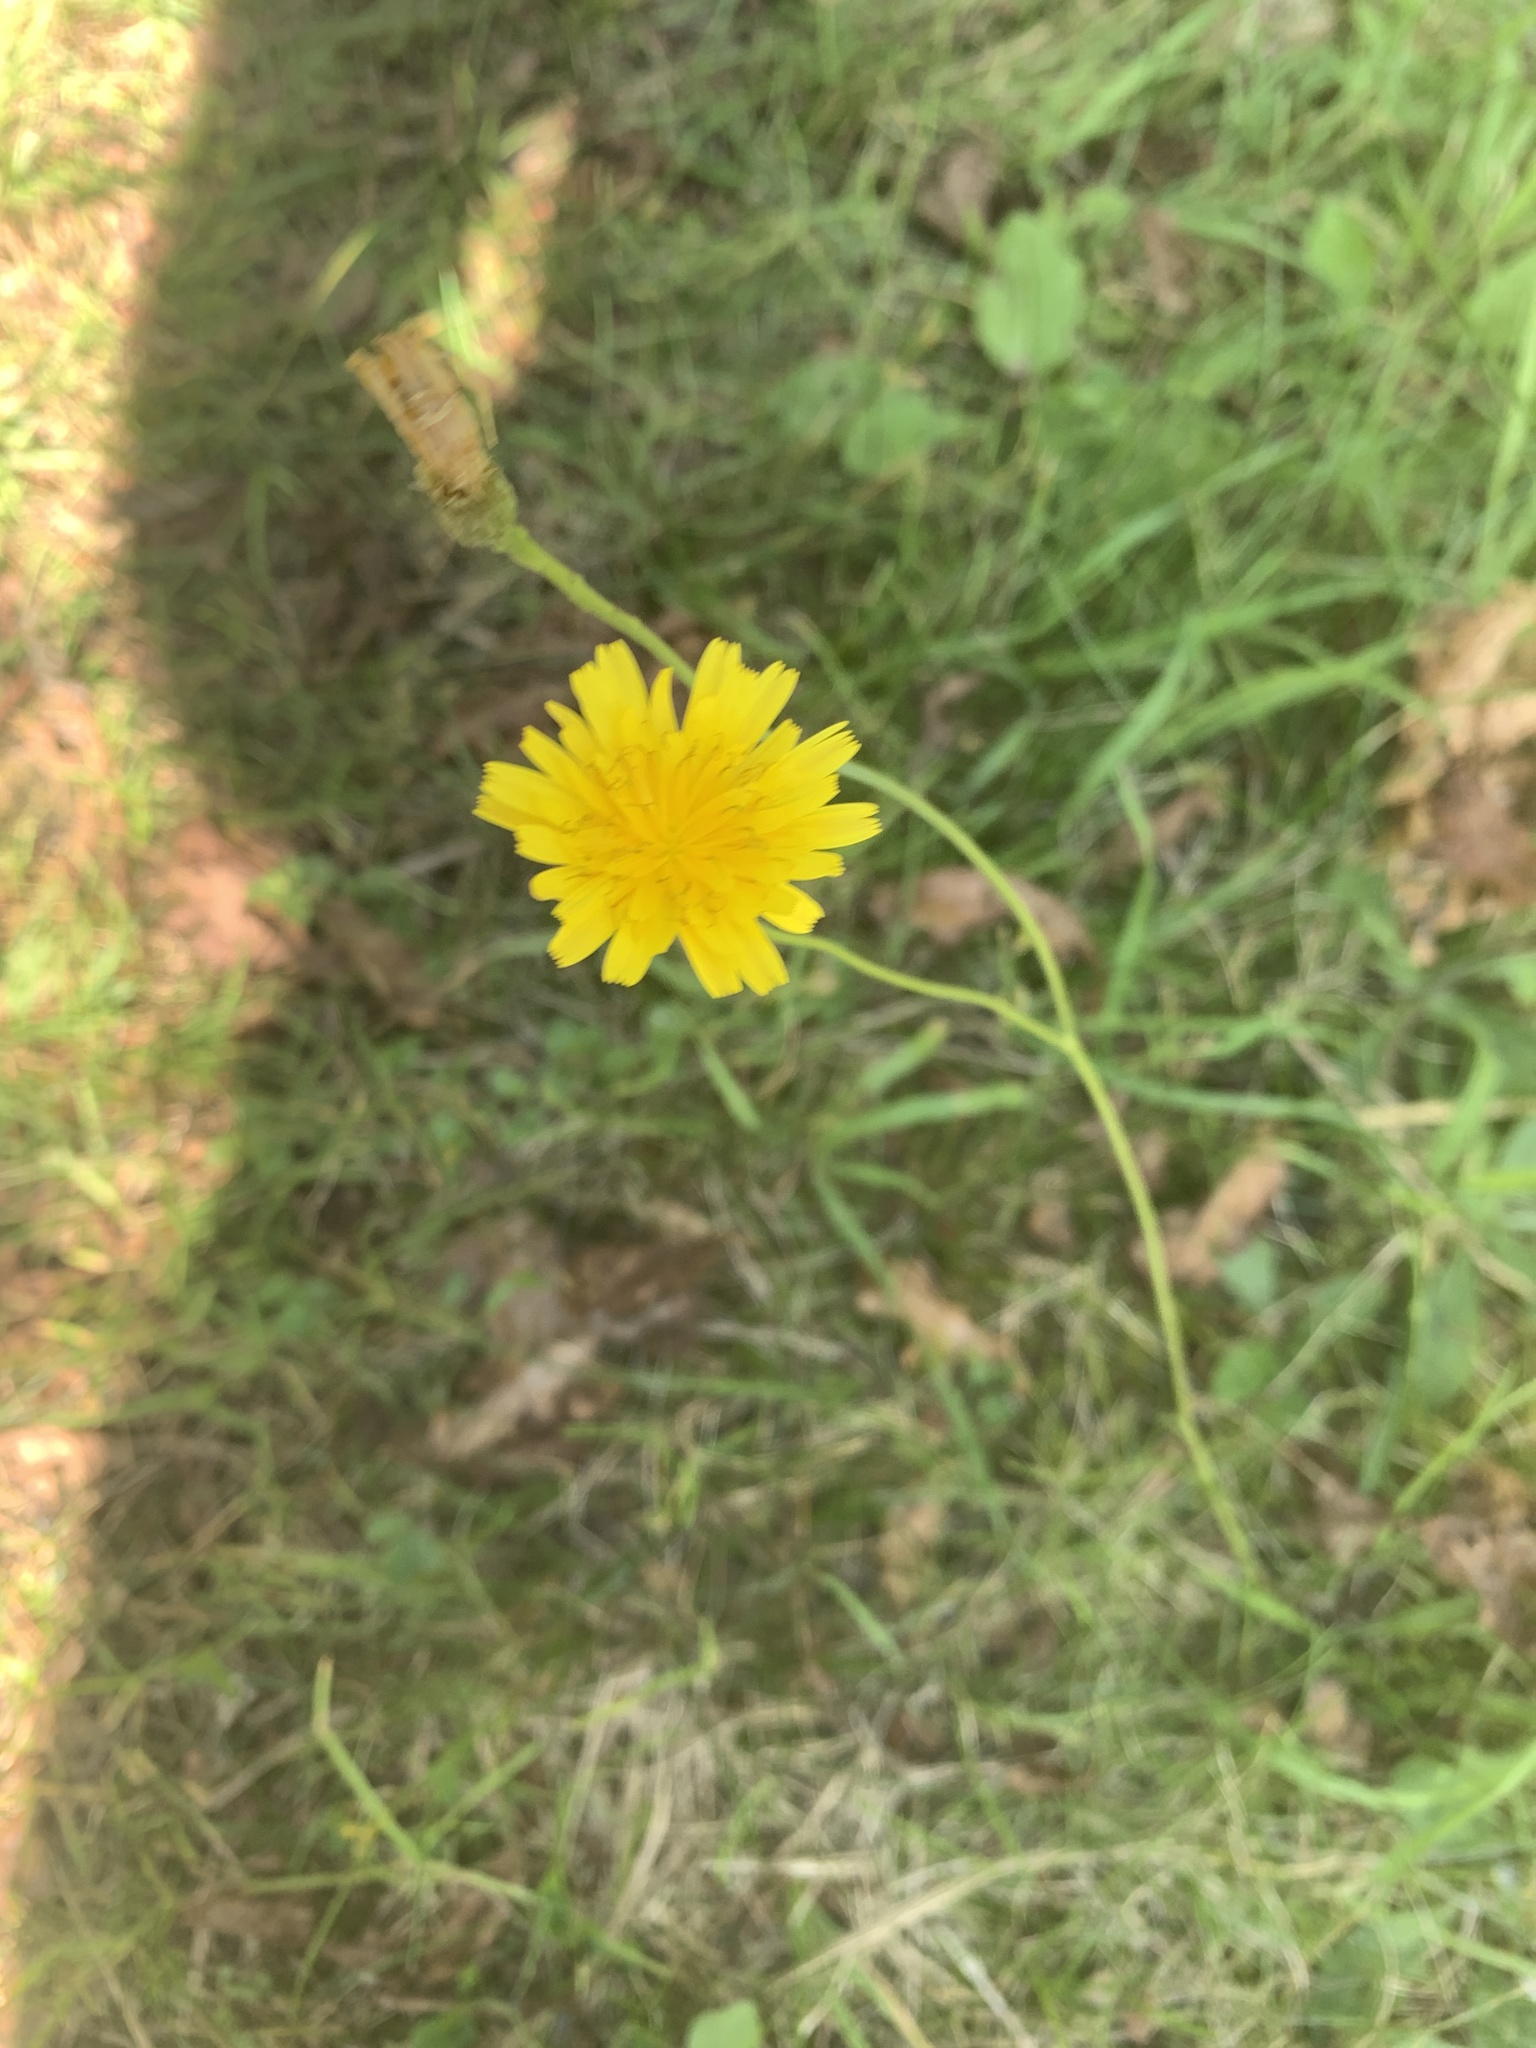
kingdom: Plantae
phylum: Tracheophyta
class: Magnoliopsida
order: Asterales
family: Asteraceae
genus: Scorzoneroides
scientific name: Scorzoneroides autumnalis
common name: Autumn hawkbit
